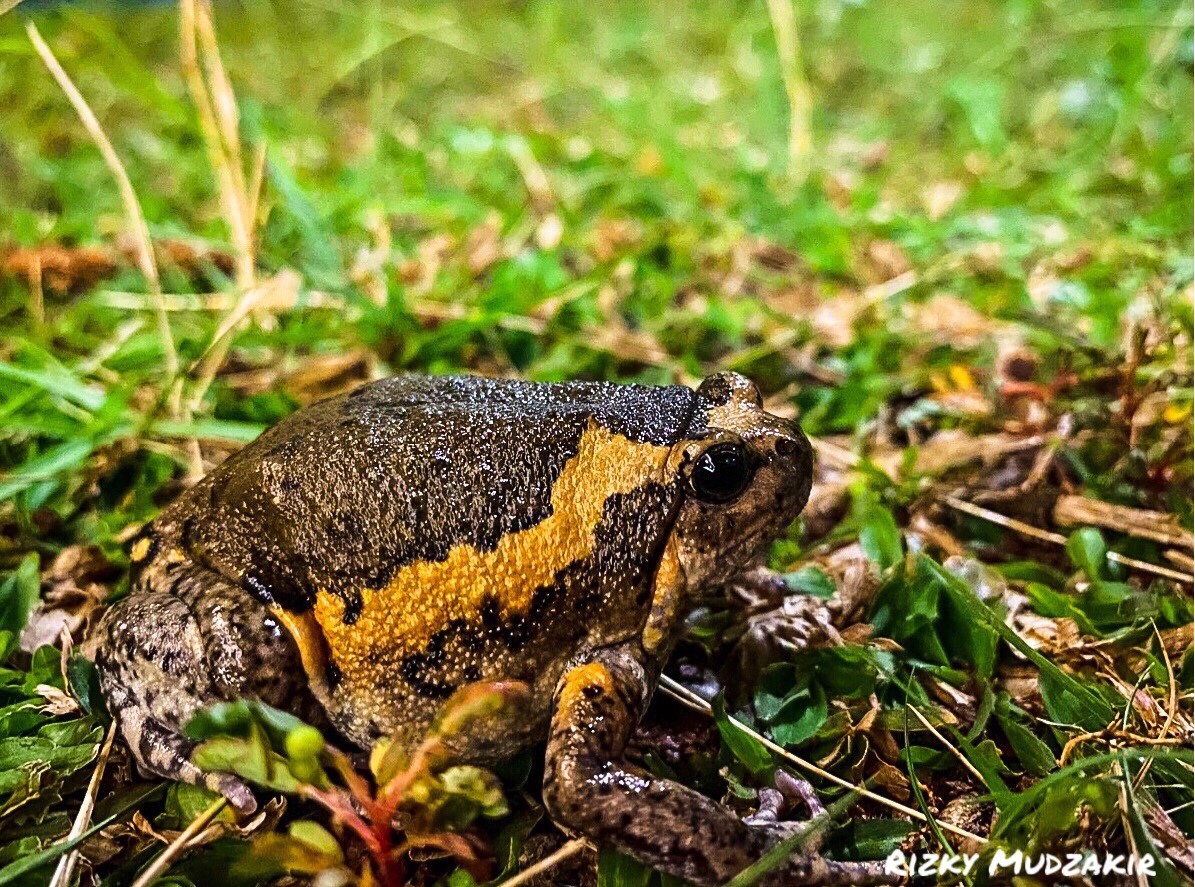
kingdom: Animalia
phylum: Chordata
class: Amphibia
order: Anura
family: Microhylidae
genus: Kaloula
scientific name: Kaloula pulchra
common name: Common,banded bullfrog
